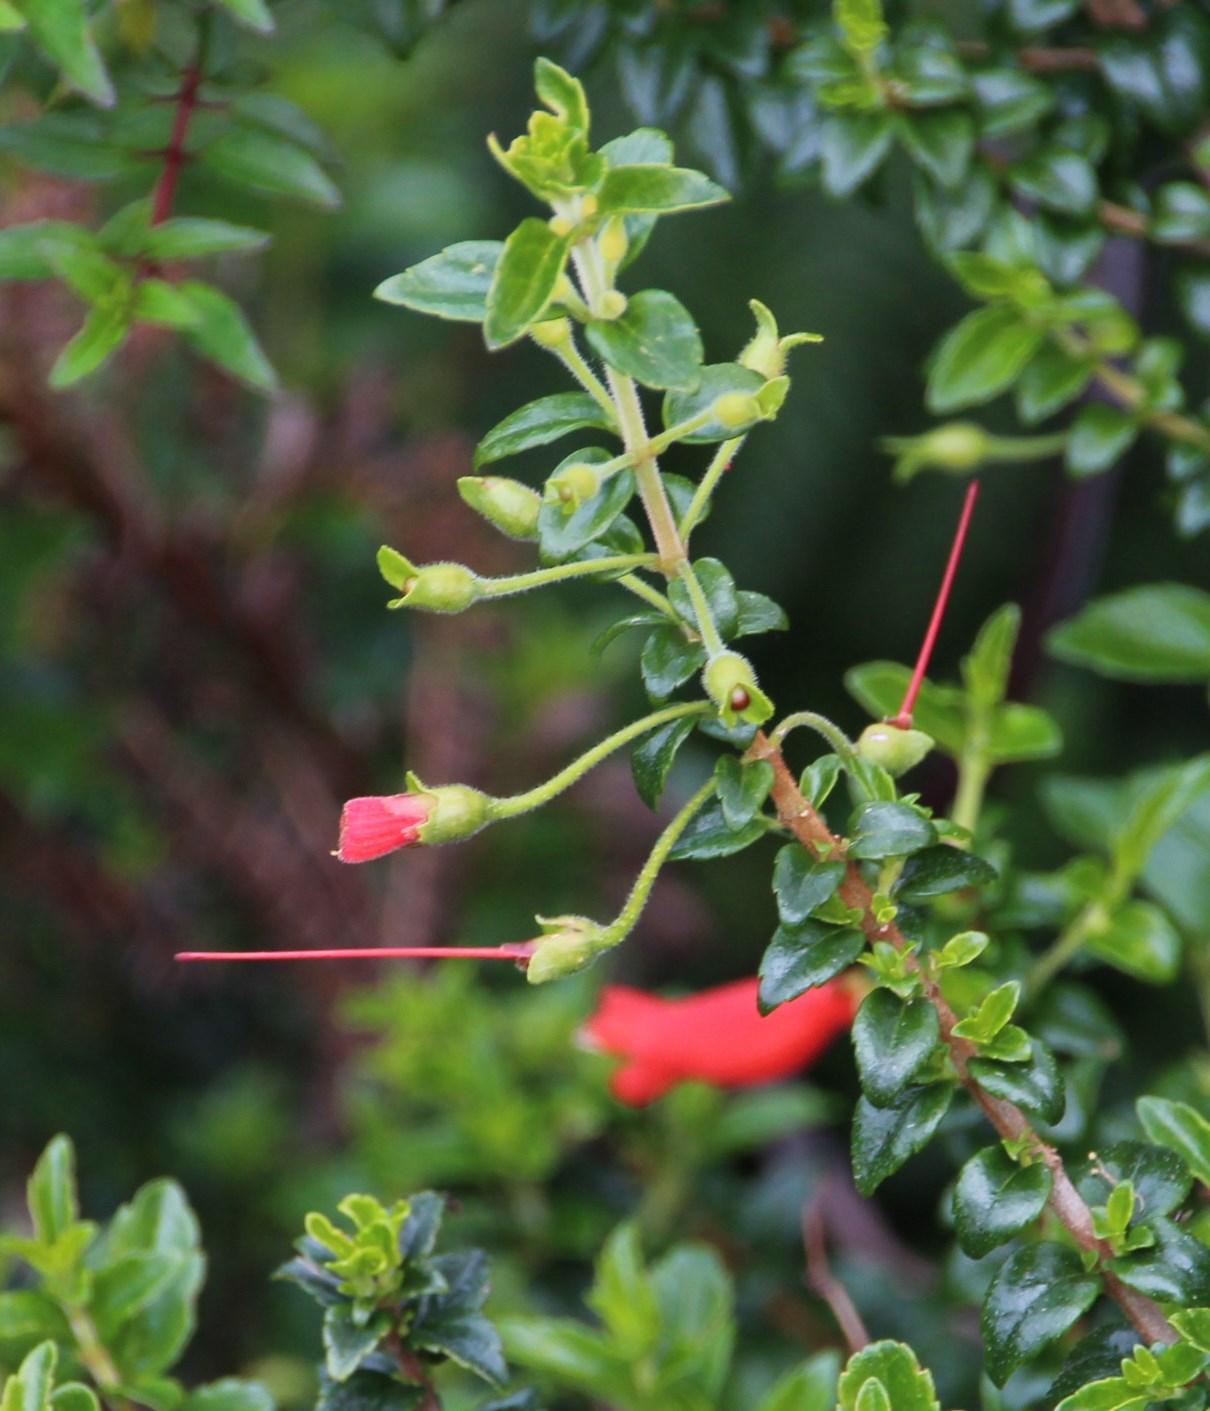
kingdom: Plantae
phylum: Tracheophyta
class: Magnoliopsida
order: Lamiales
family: Gesneriaceae
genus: Mitraria
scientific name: Mitraria coccinea
